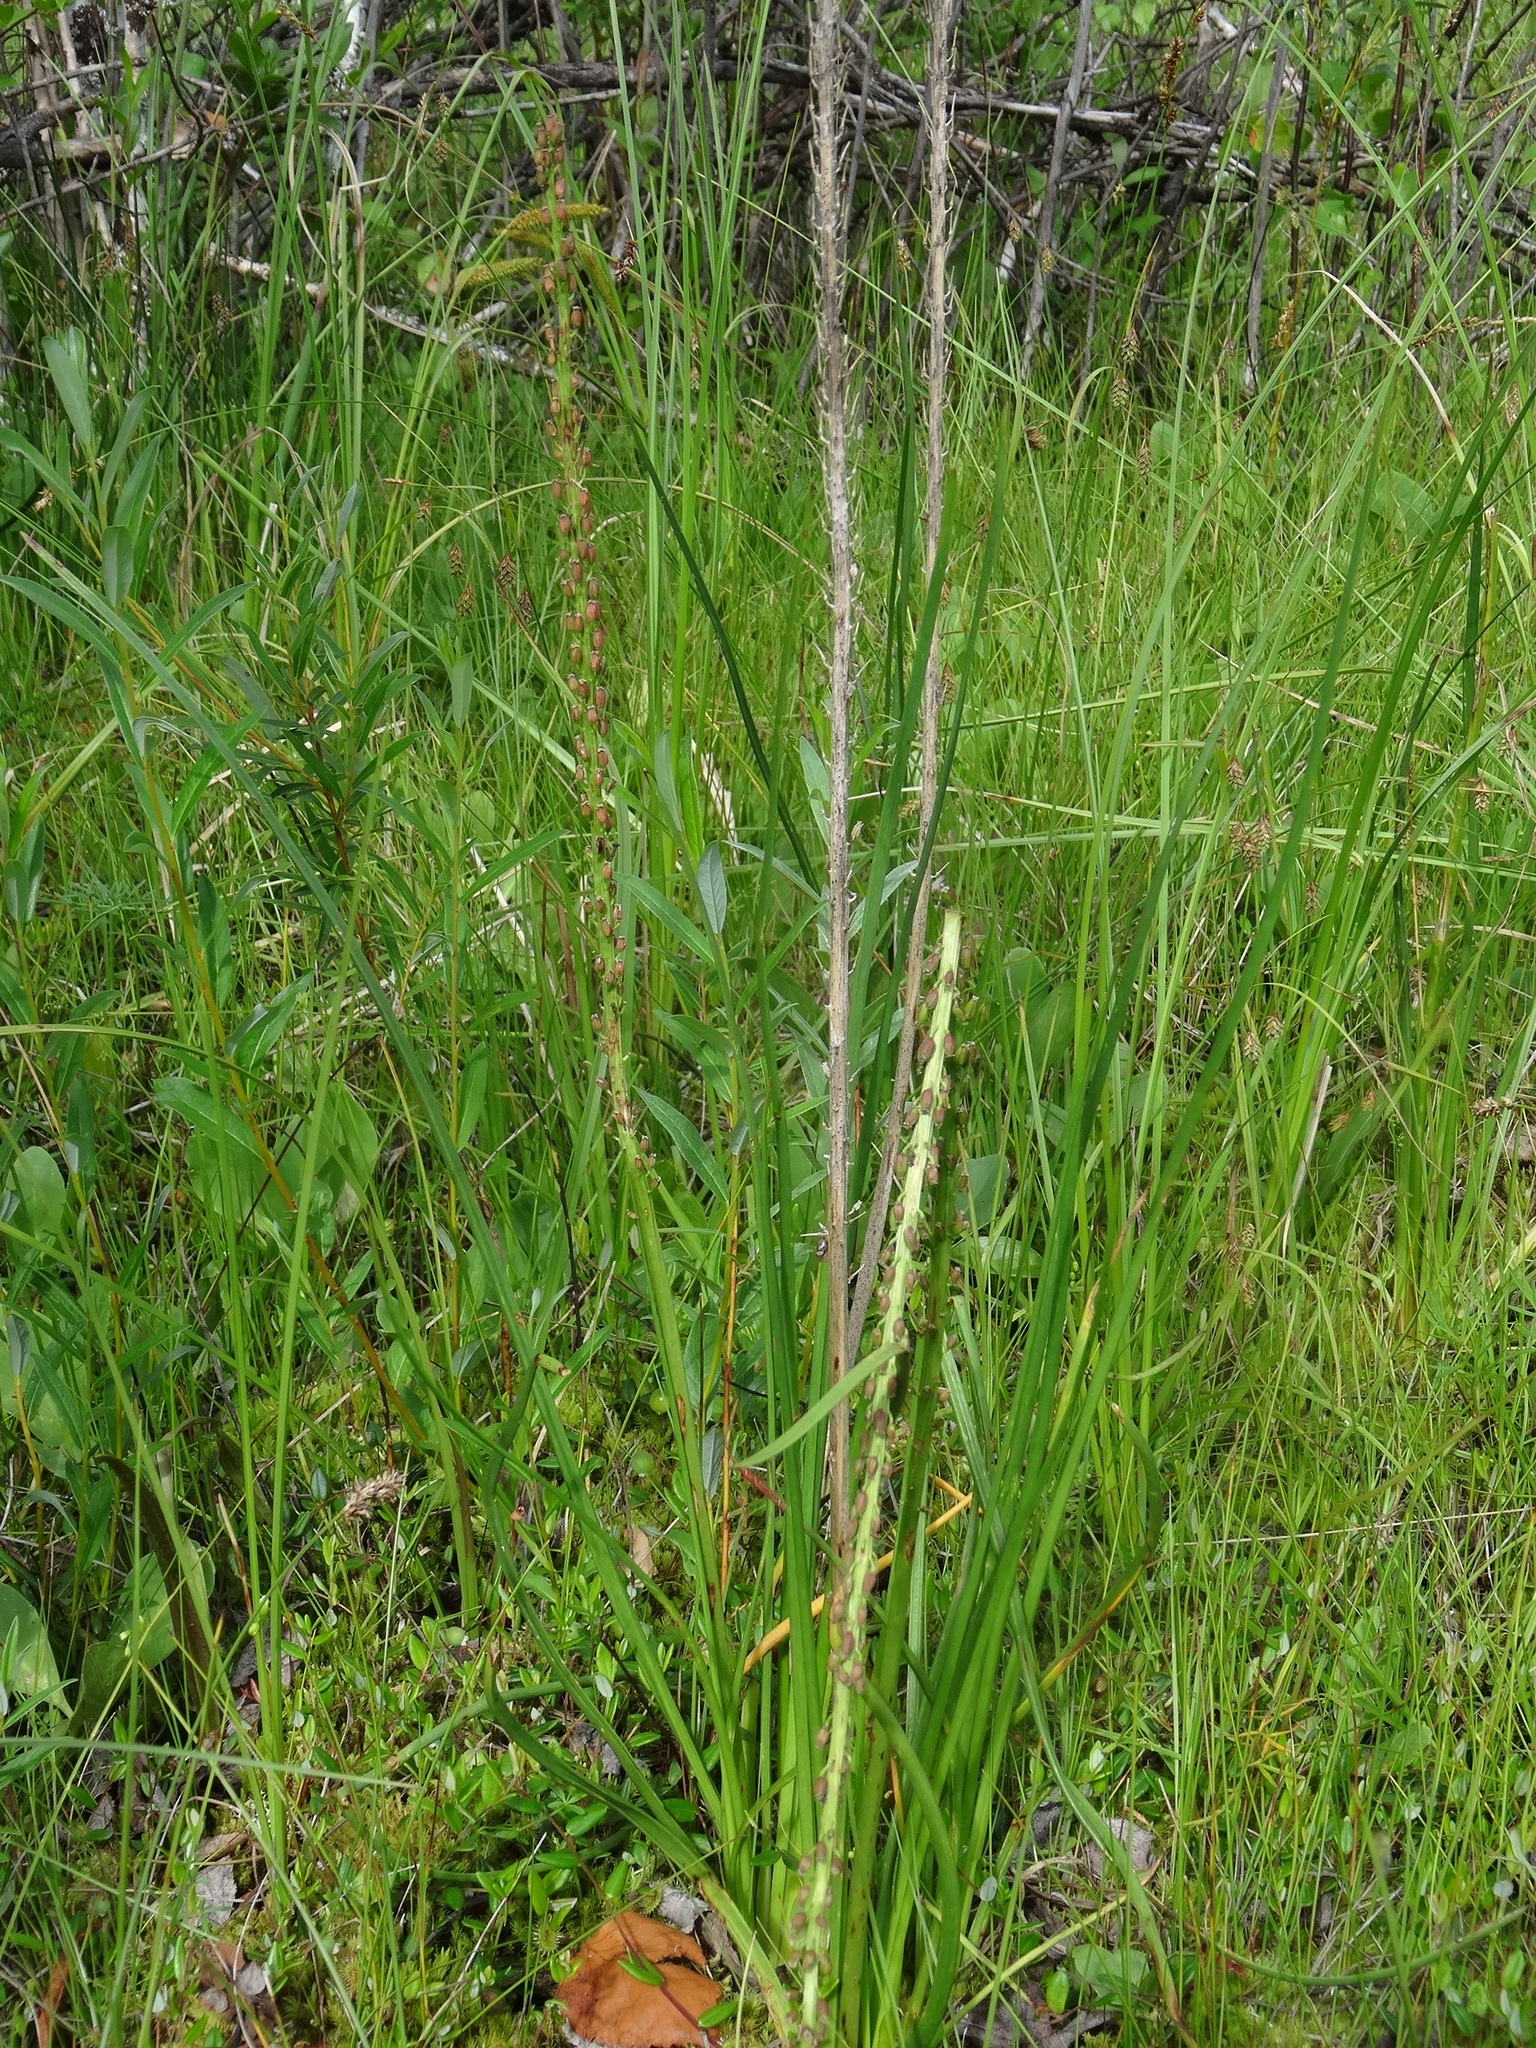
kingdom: Plantae
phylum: Tracheophyta
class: Liliopsida
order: Alismatales
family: Juncaginaceae
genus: Triglochin
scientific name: Triglochin maritima
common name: Sea arrowgrass
